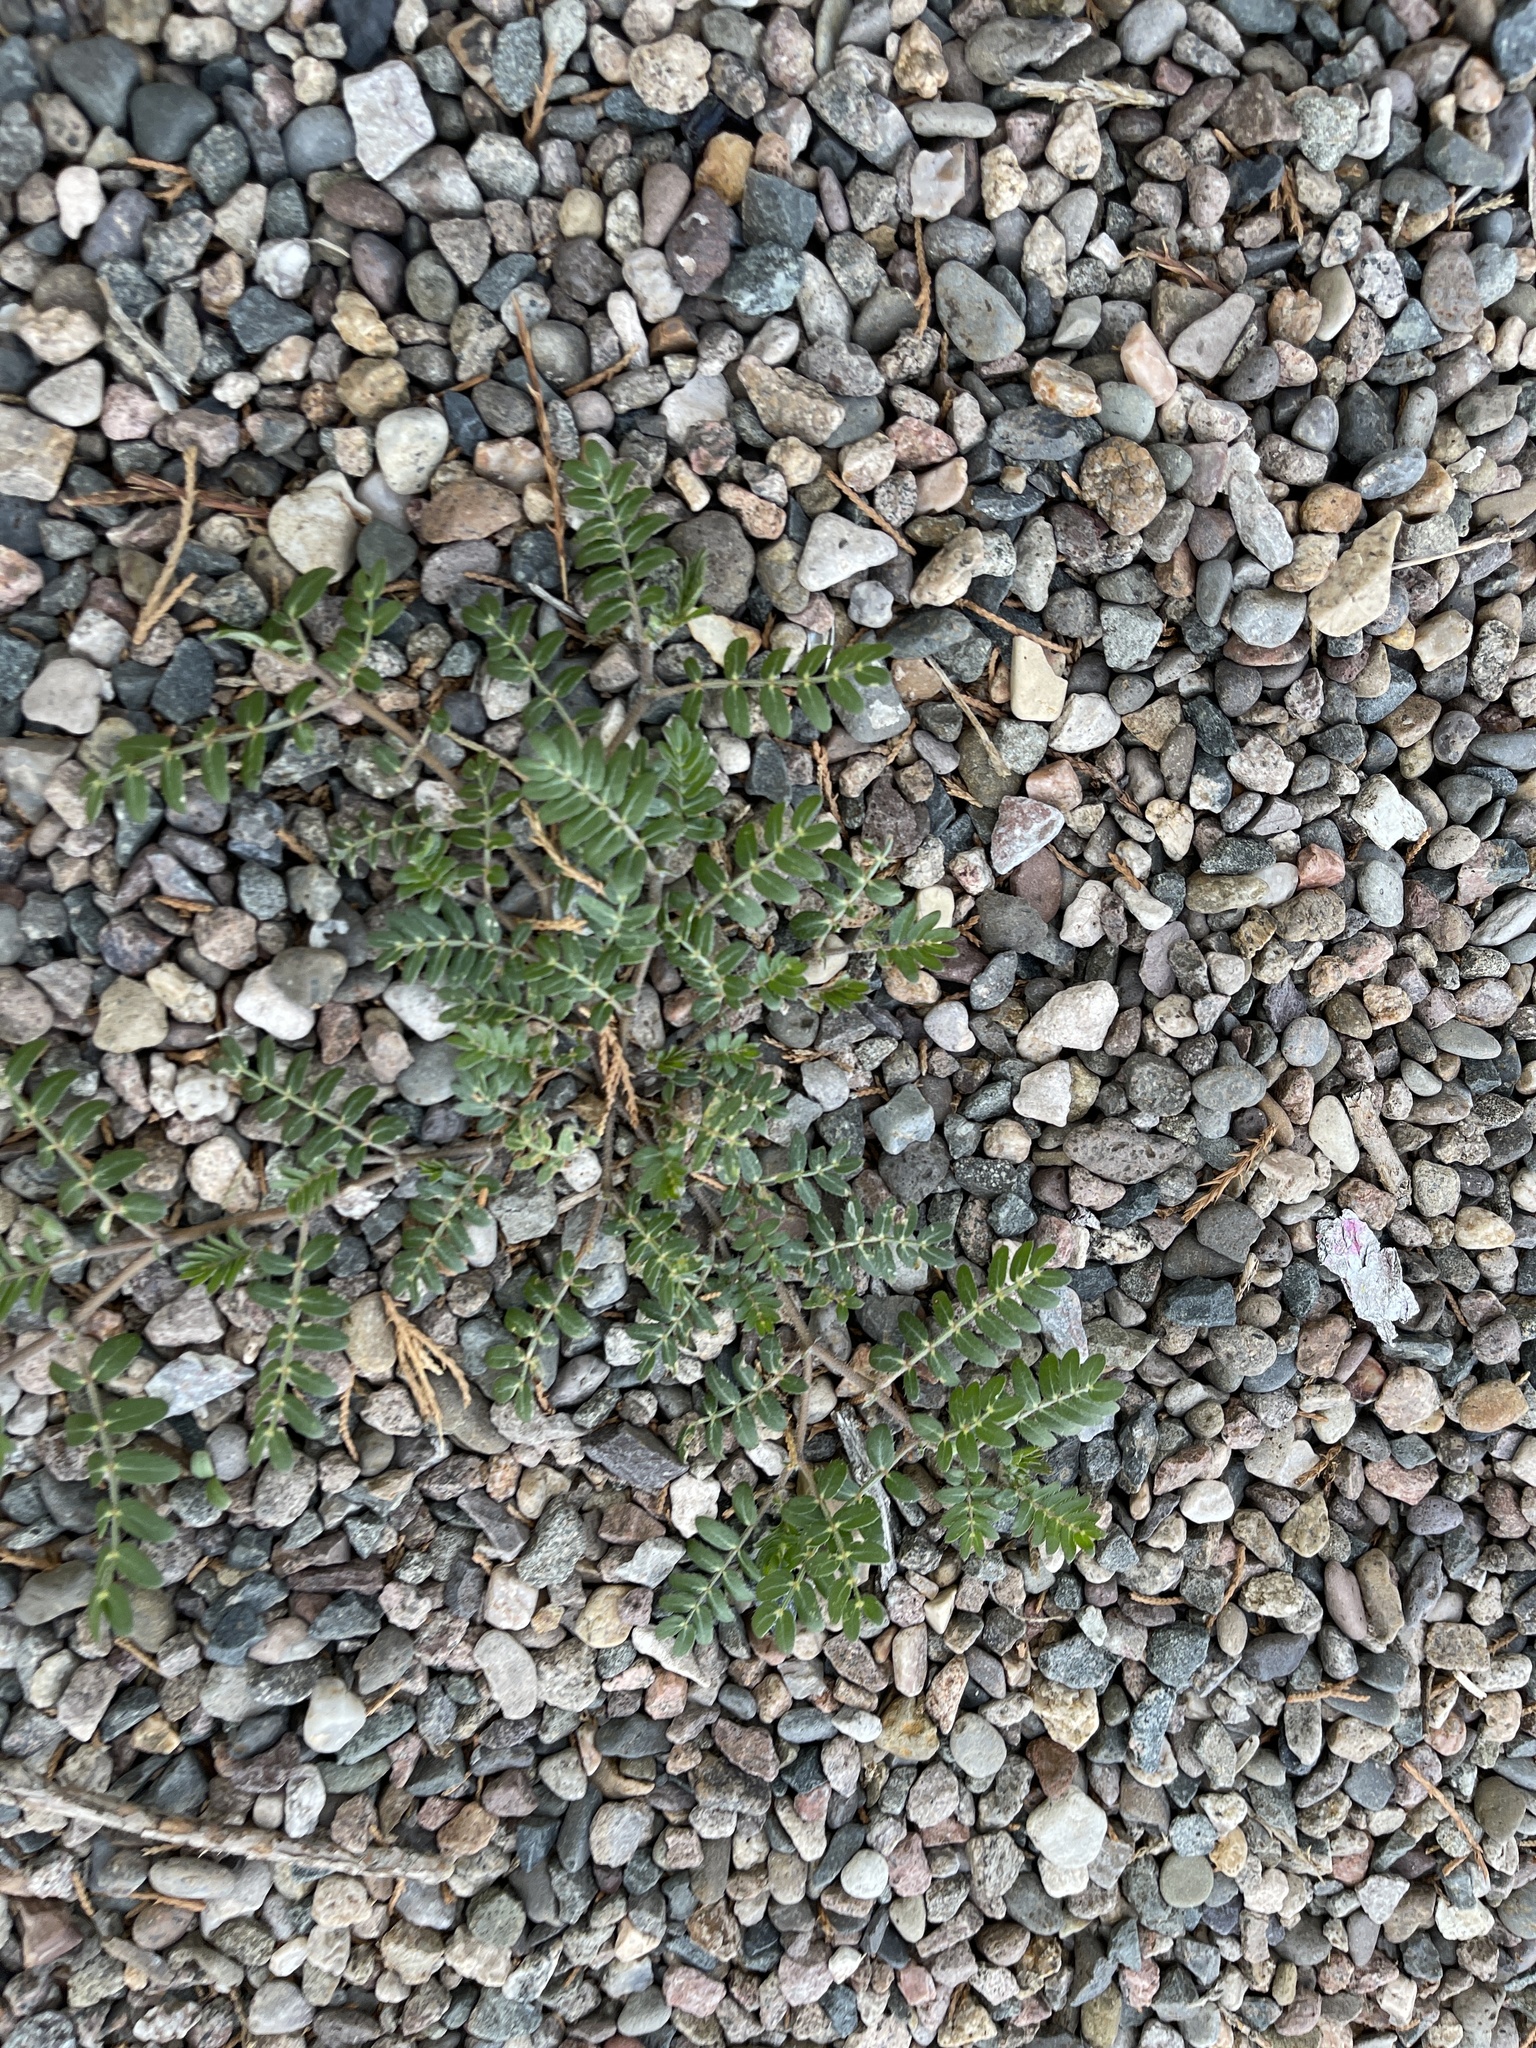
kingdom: Plantae
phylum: Tracheophyta
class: Magnoliopsida
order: Zygophyllales
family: Zygophyllaceae
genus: Tribulus
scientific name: Tribulus terrestris
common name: Puncturevine
